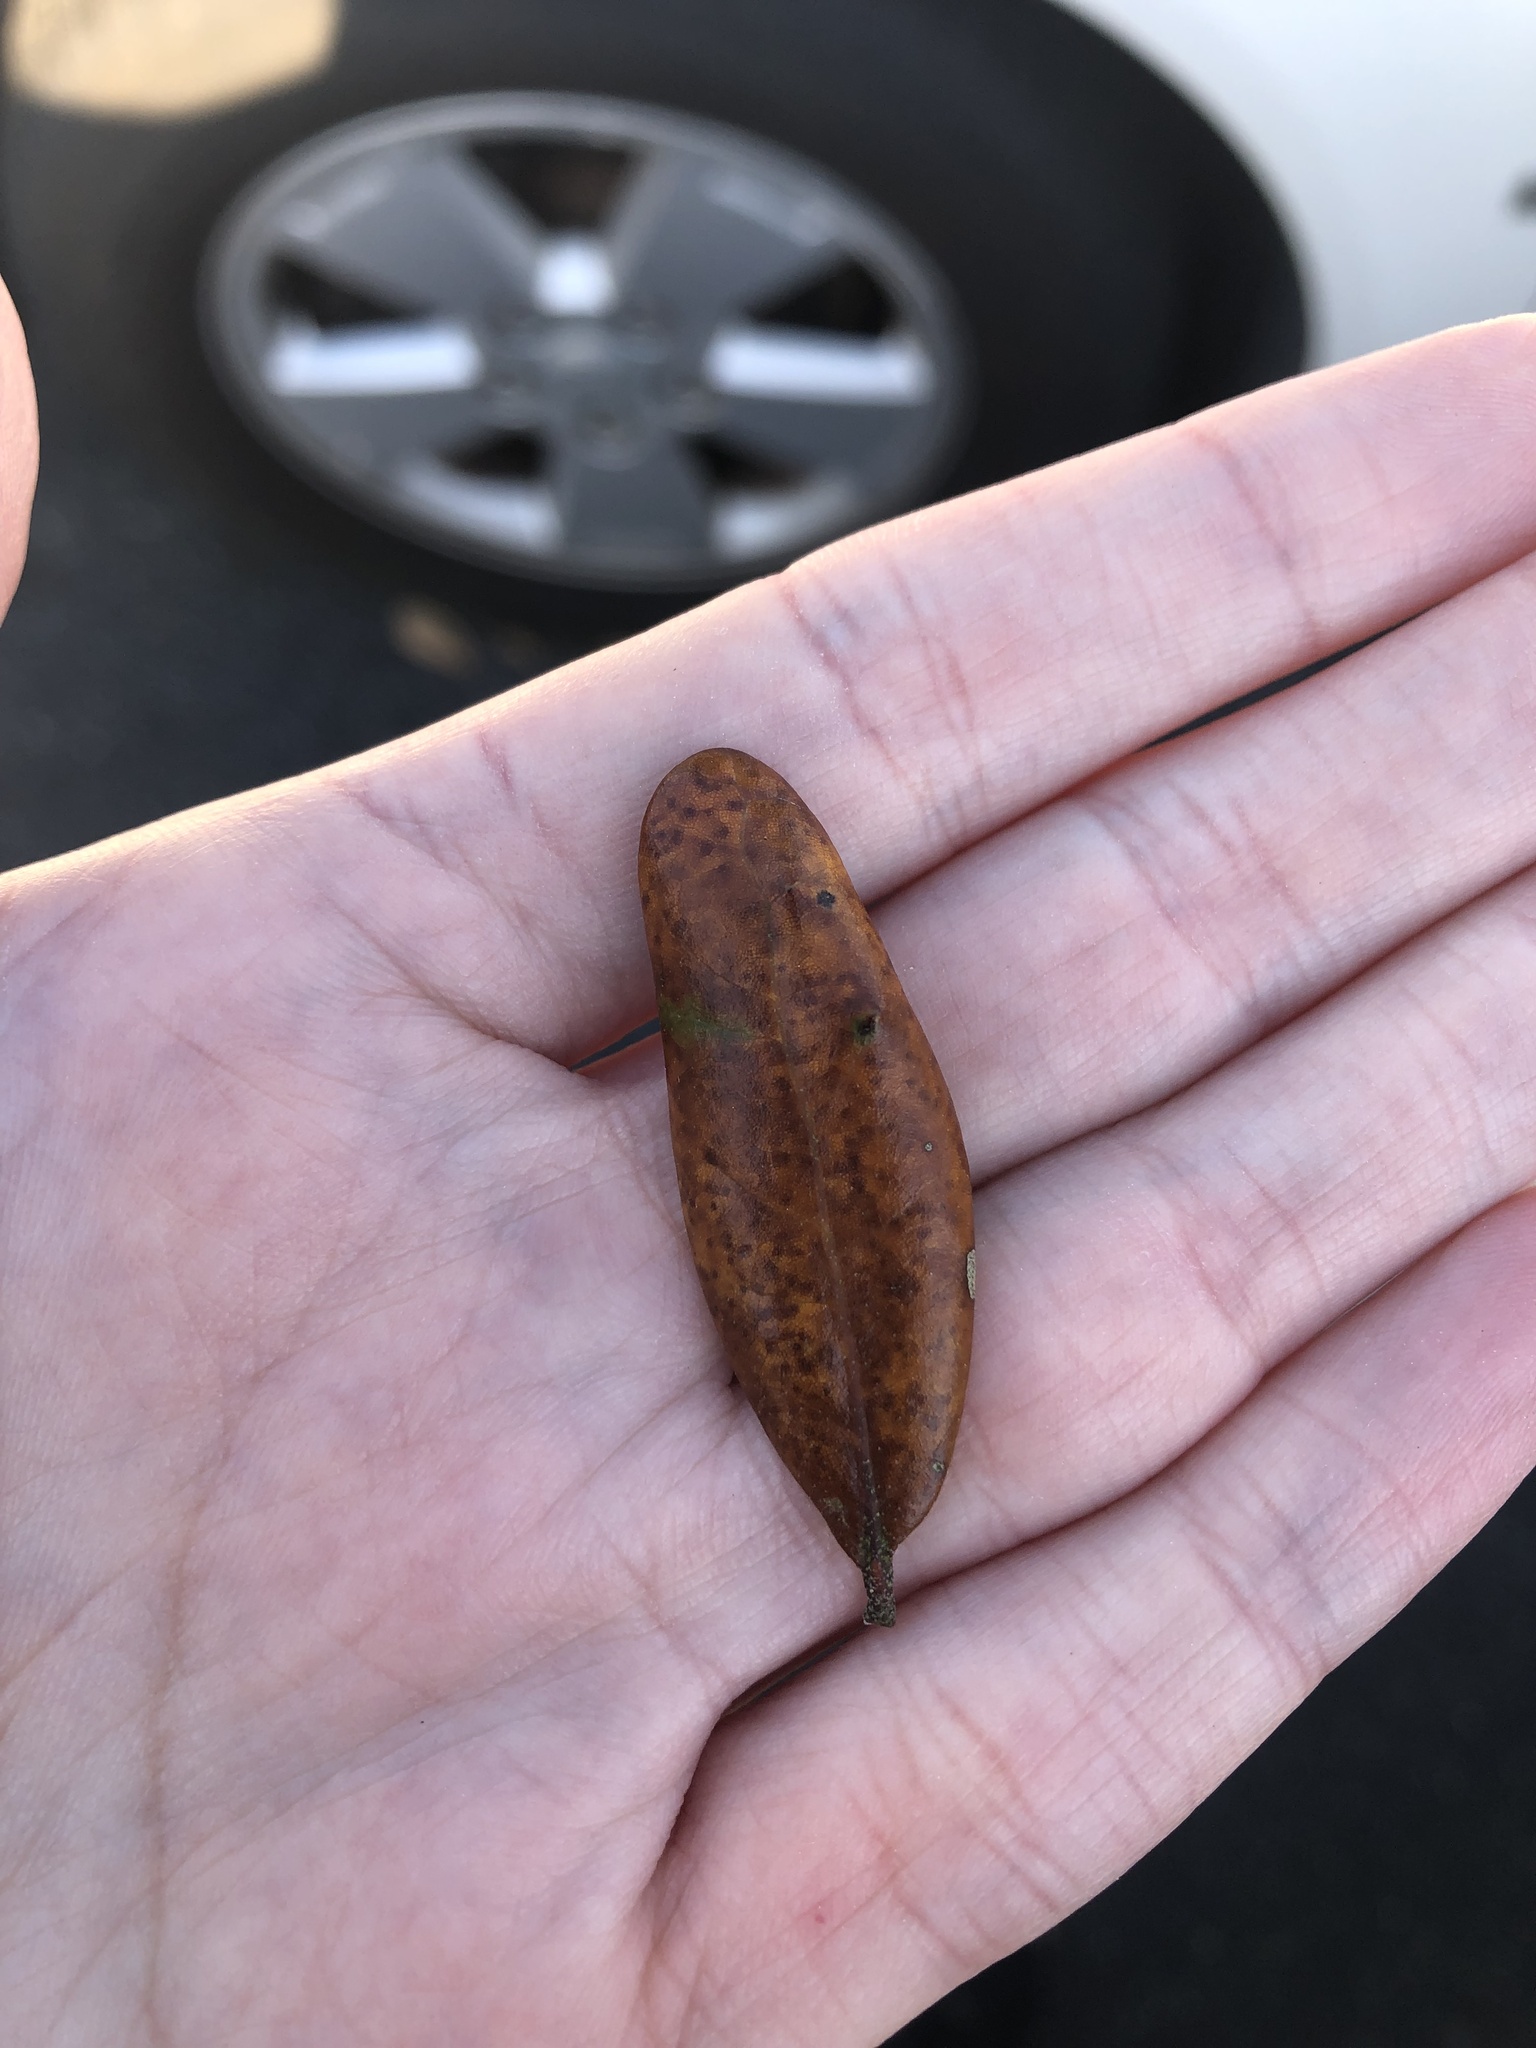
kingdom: Animalia
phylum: Arthropoda
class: Insecta
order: Hymenoptera
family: Cynipidae
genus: Belonocnema
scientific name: Belonocnema treatae
